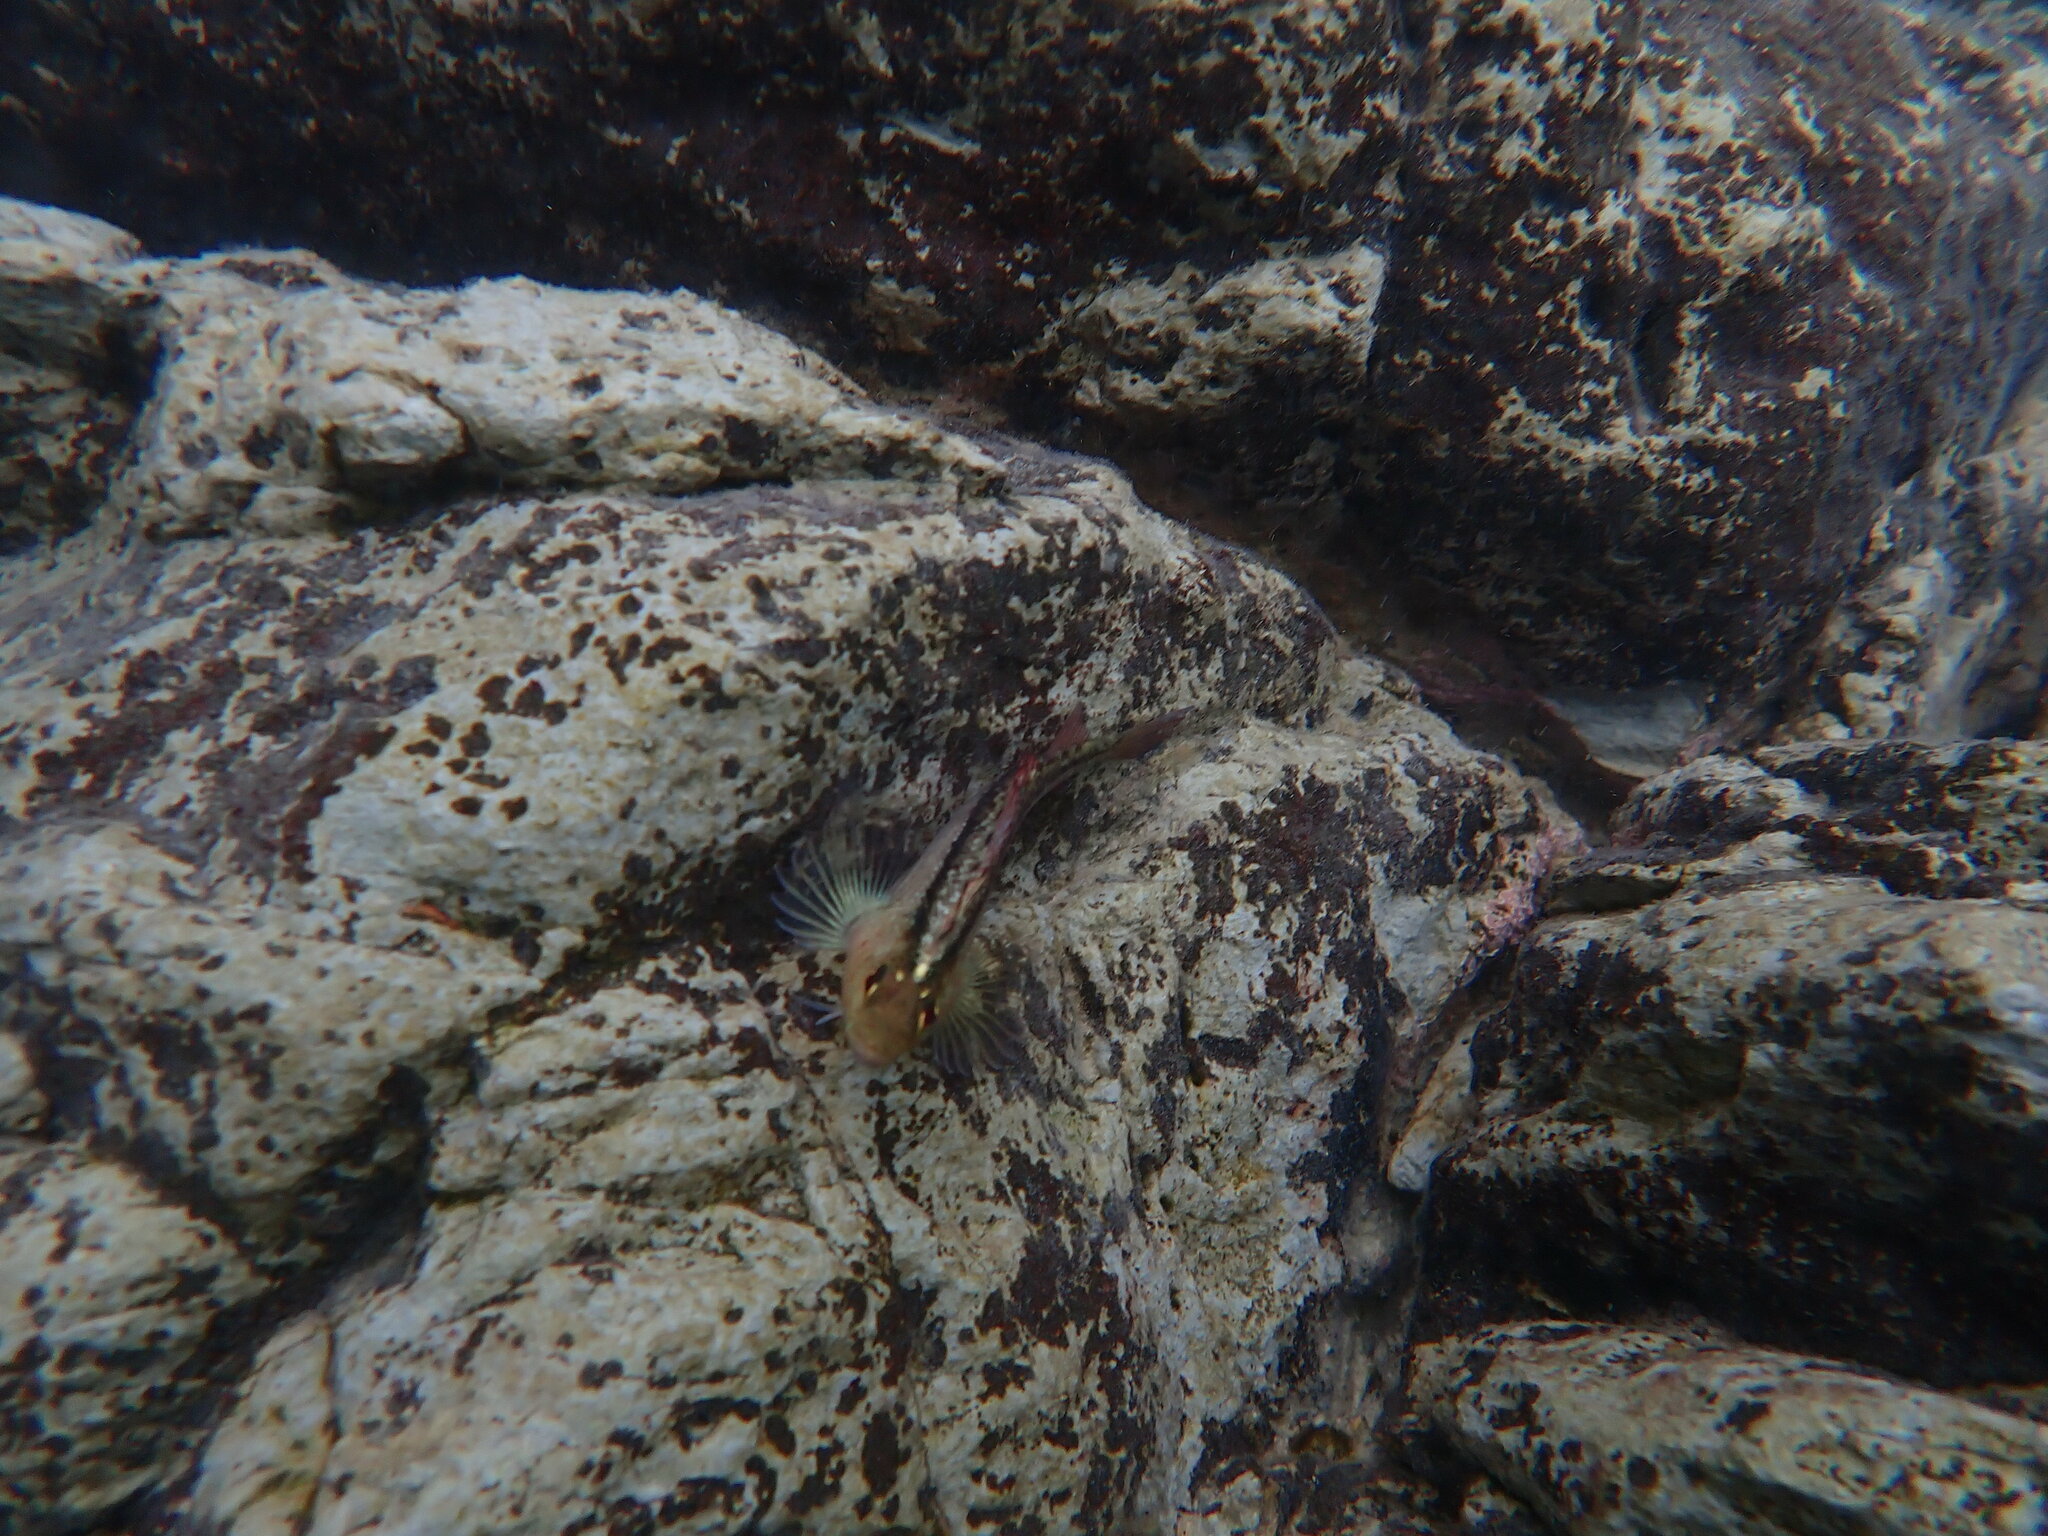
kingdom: Animalia
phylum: Chordata
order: Perciformes
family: Tripterygiidae
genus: Forsterygion
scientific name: Forsterygion lapillum
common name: Common triplefin
